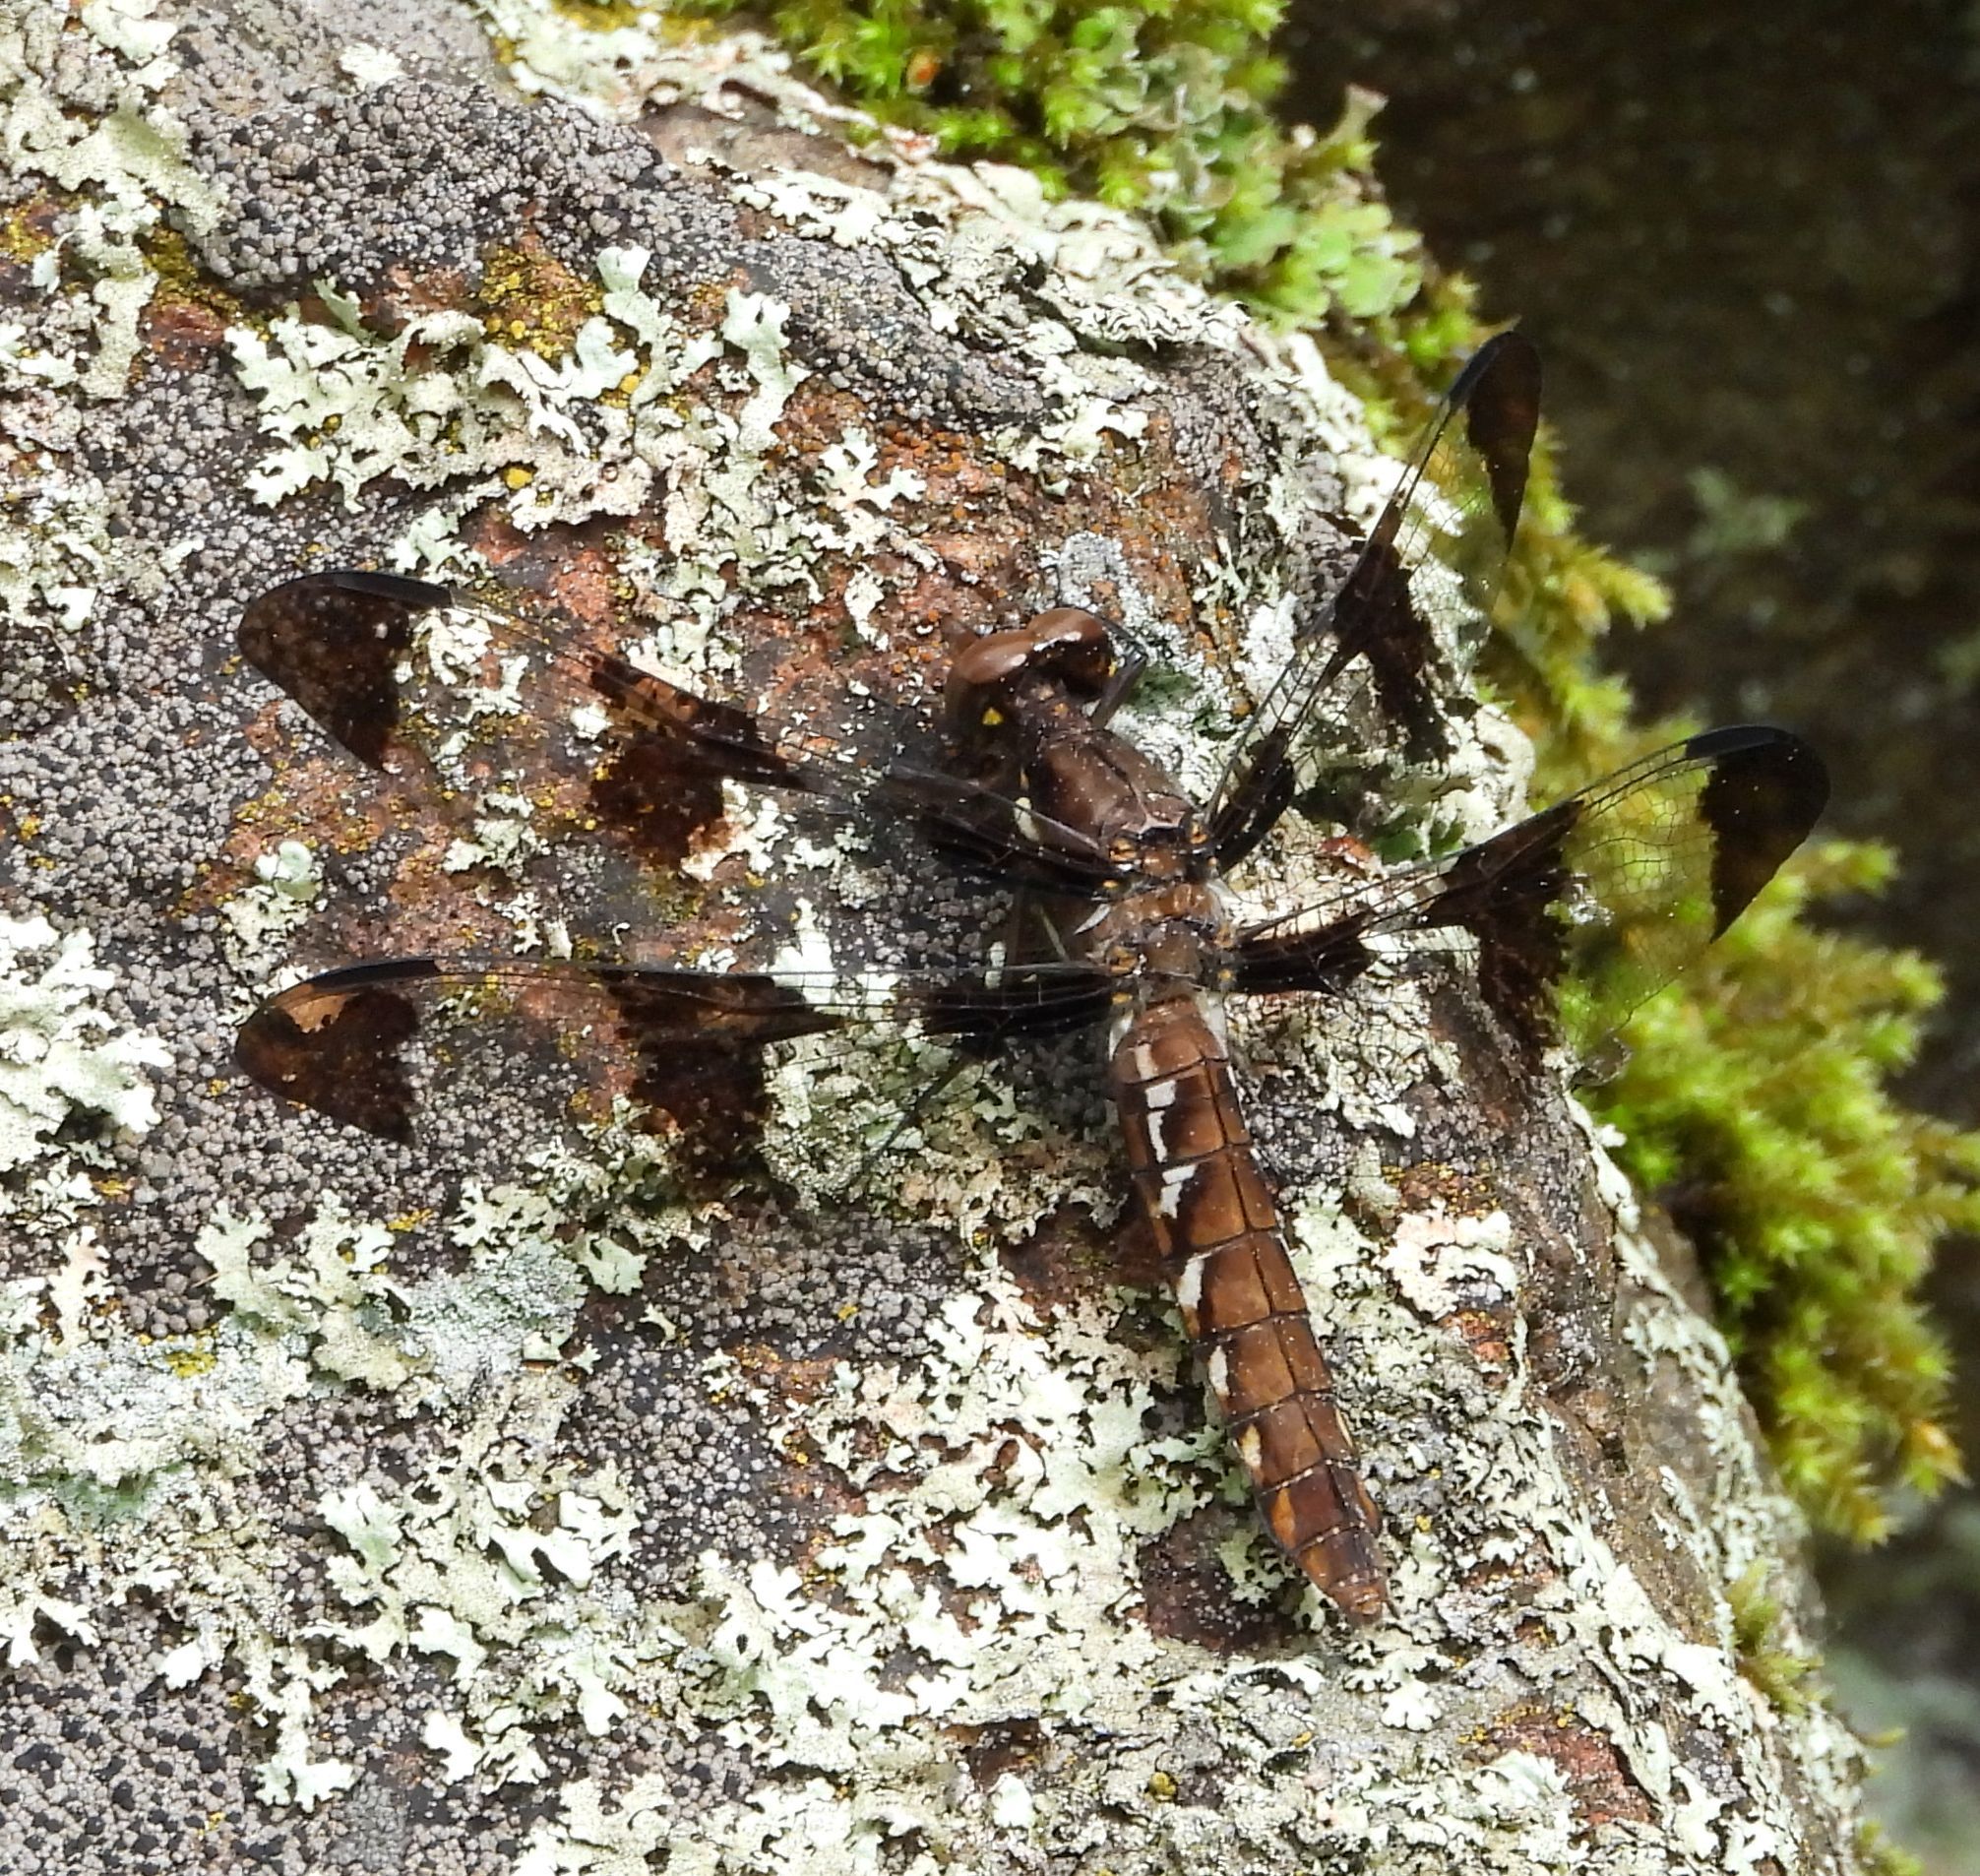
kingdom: Animalia
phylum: Arthropoda
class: Insecta
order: Odonata
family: Libellulidae
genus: Plathemis
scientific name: Plathemis lydia
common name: Common whitetail
